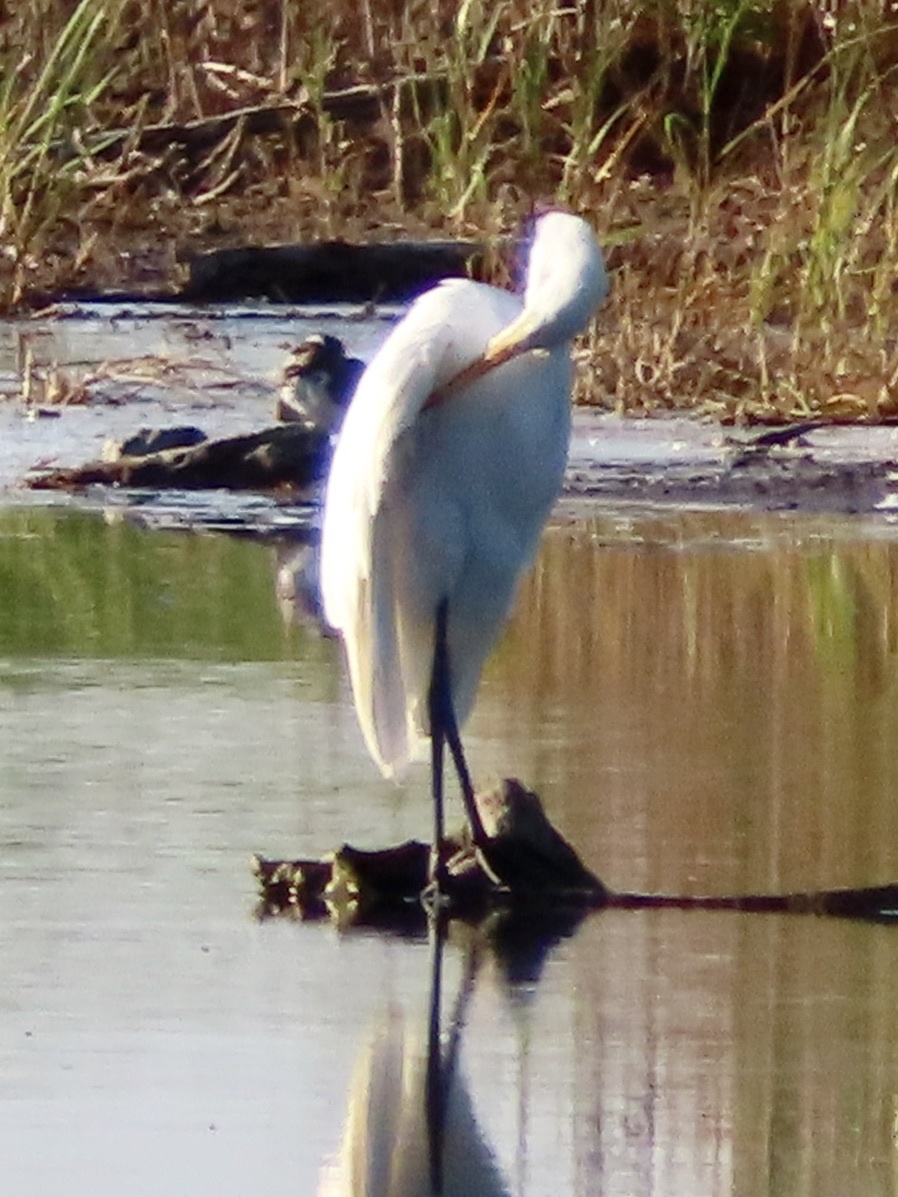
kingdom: Animalia
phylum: Chordata
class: Aves
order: Pelecaniformes
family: Ardeidae
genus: Ardea
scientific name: Ardea alba
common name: Great egret
